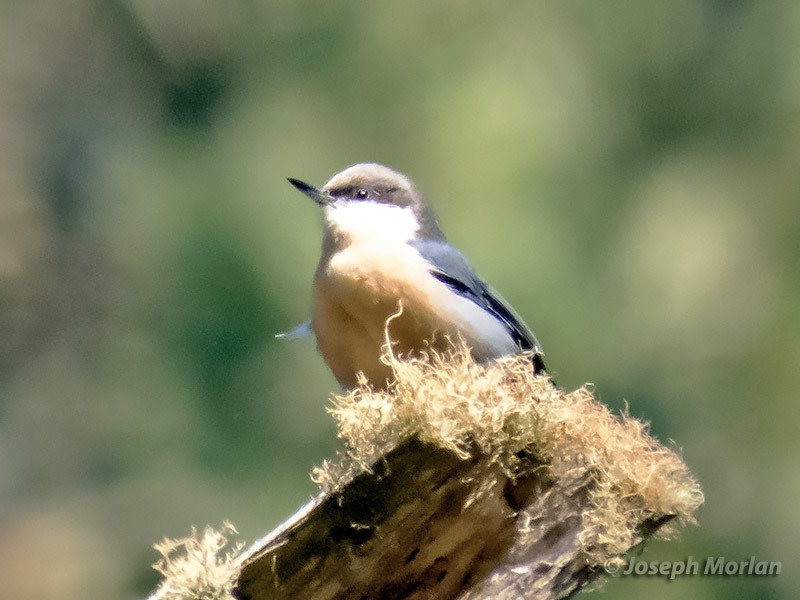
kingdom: Animalia
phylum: Chordata
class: Aves
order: Passeriformes
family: Sittidae
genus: Sitta
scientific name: Sitta pygmaea
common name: Pygmy nuthatch
